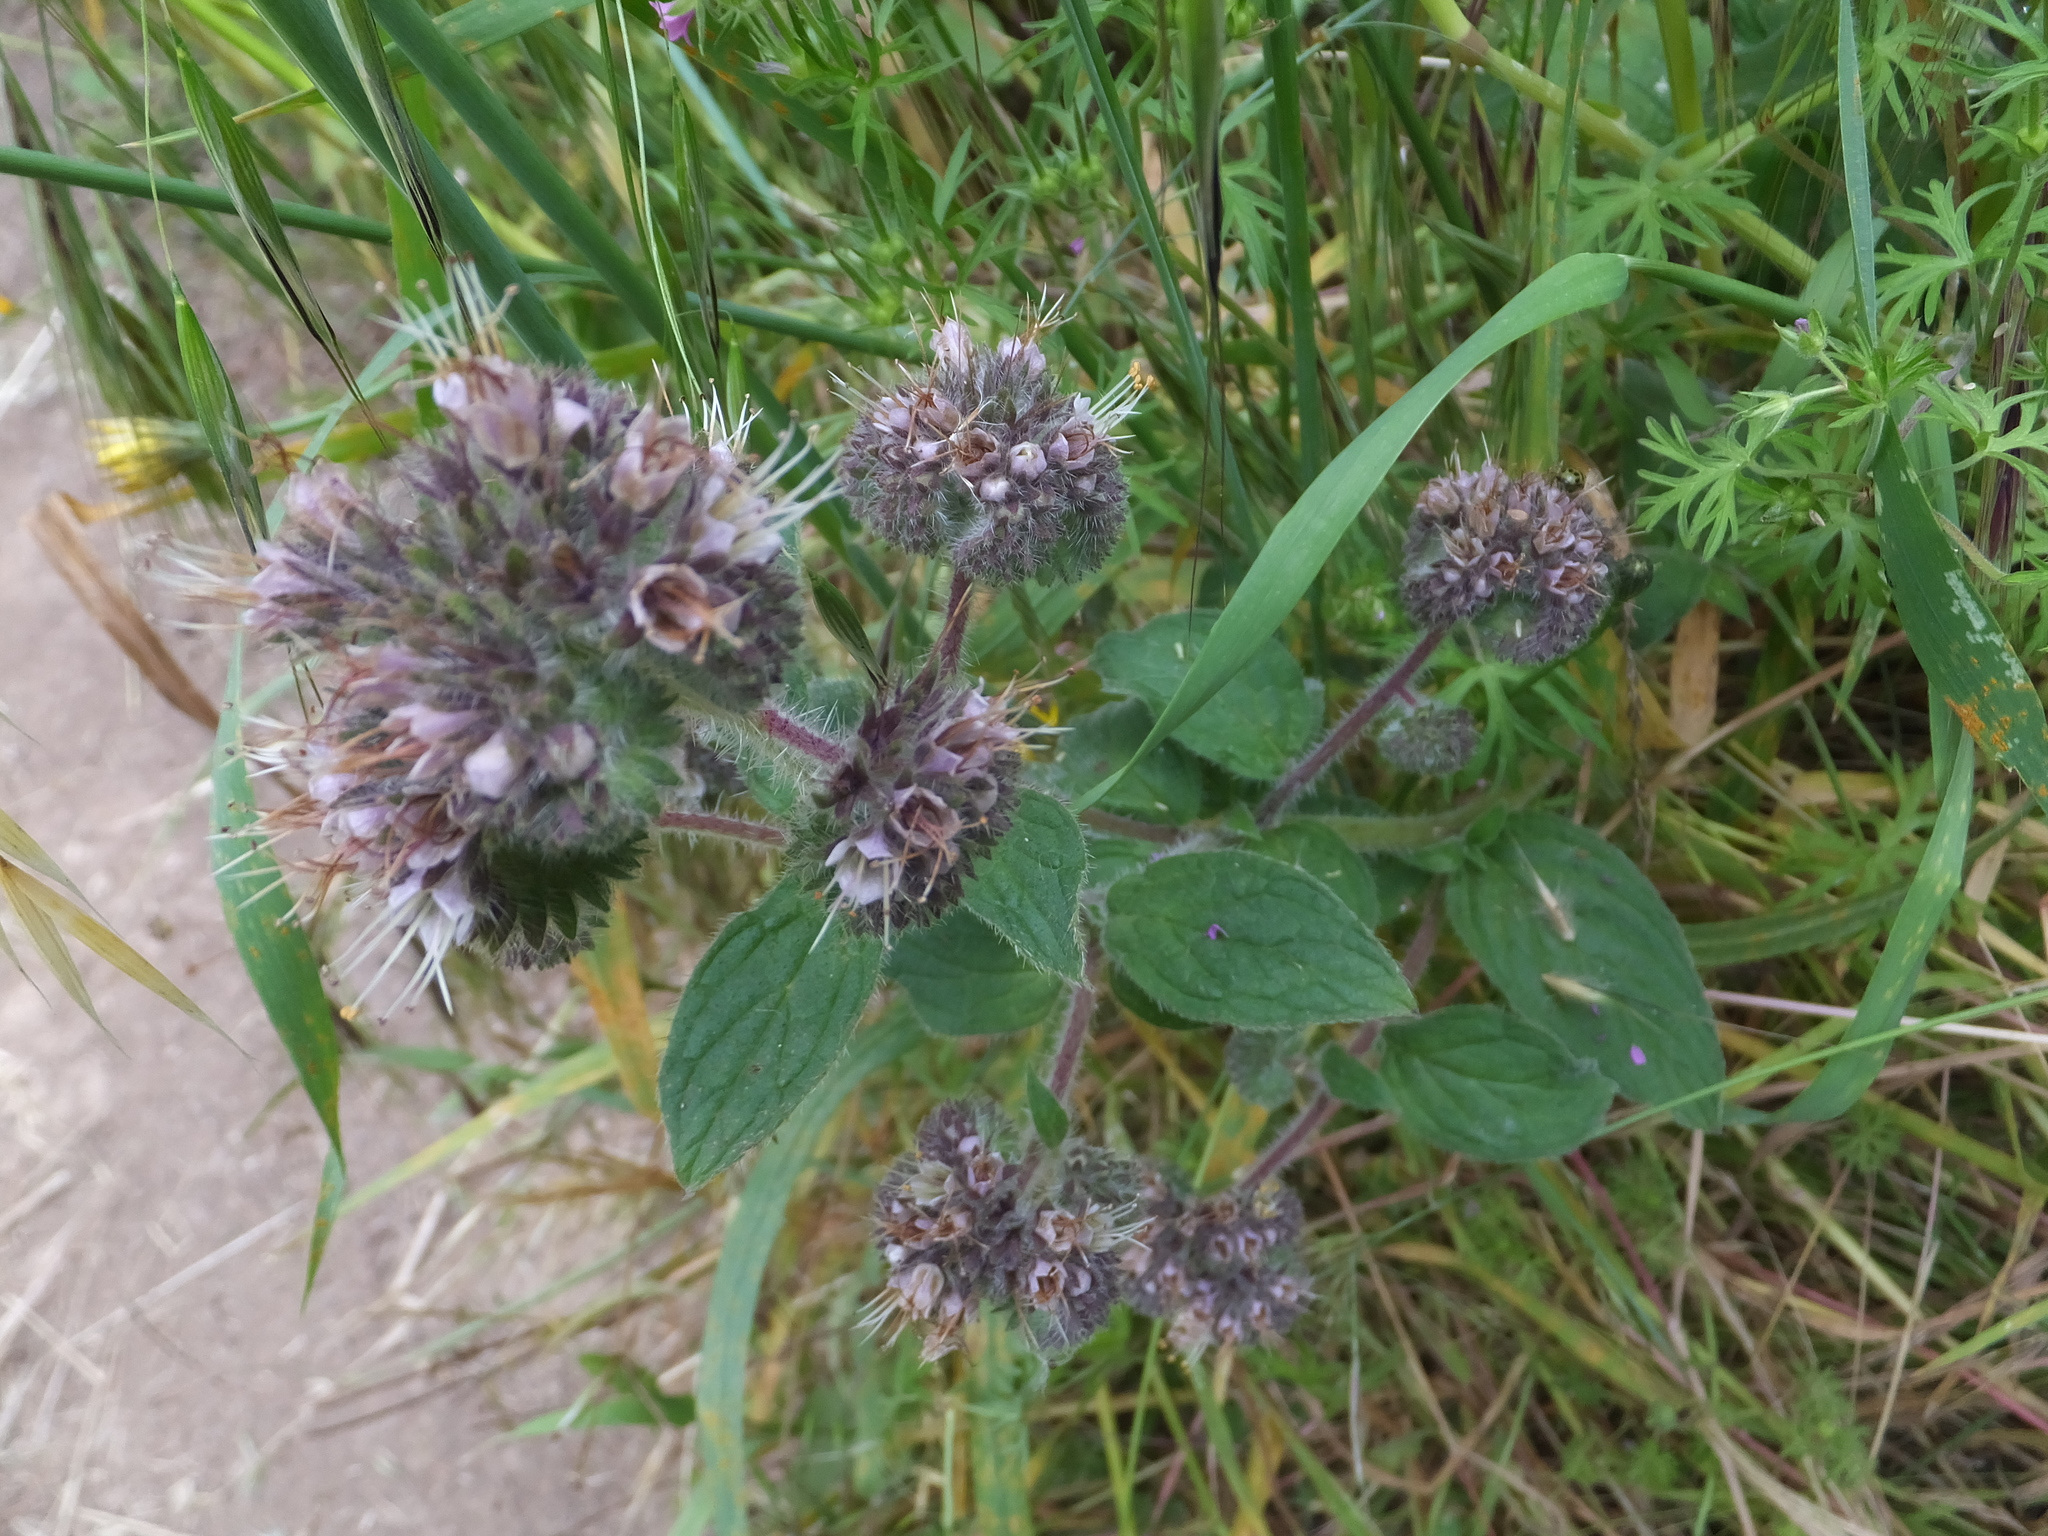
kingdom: Plantae
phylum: Tracheophyta
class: Magnoliopsida
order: Boraginales
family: Hydrophyllaceae
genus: Phacelia
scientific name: Phacelia californica
